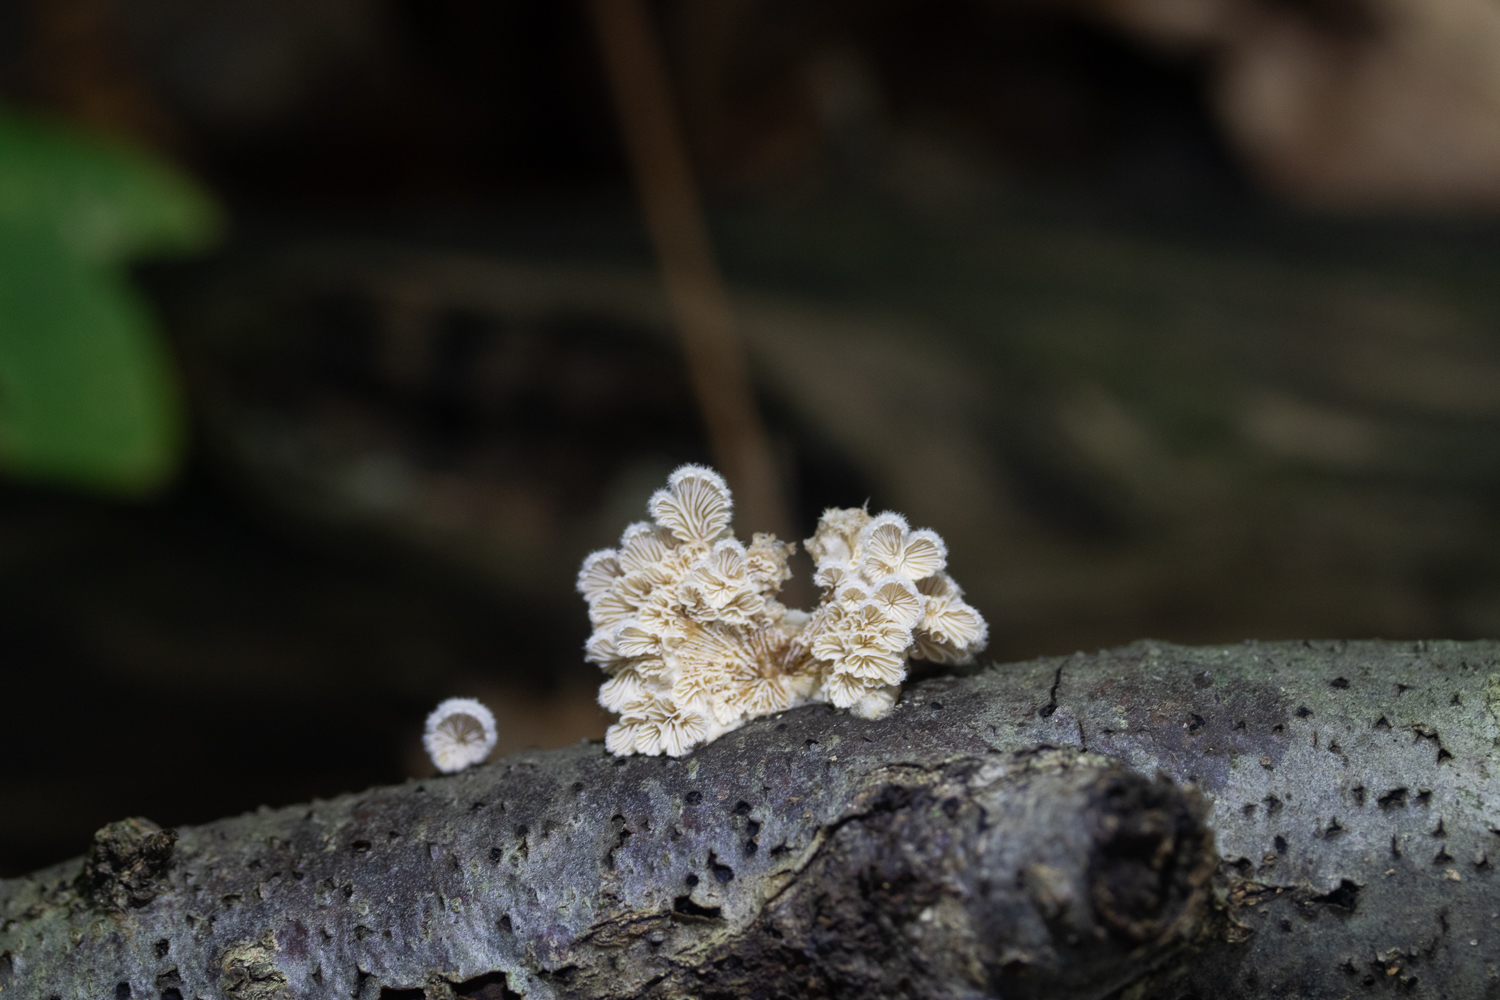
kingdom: Fungi
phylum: Basidiomycota
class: Agaricomycetes
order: Agaricales
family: Schizophyllaceae
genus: Schizophyllum
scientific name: Schizophyllum commune
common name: Common porecrust
